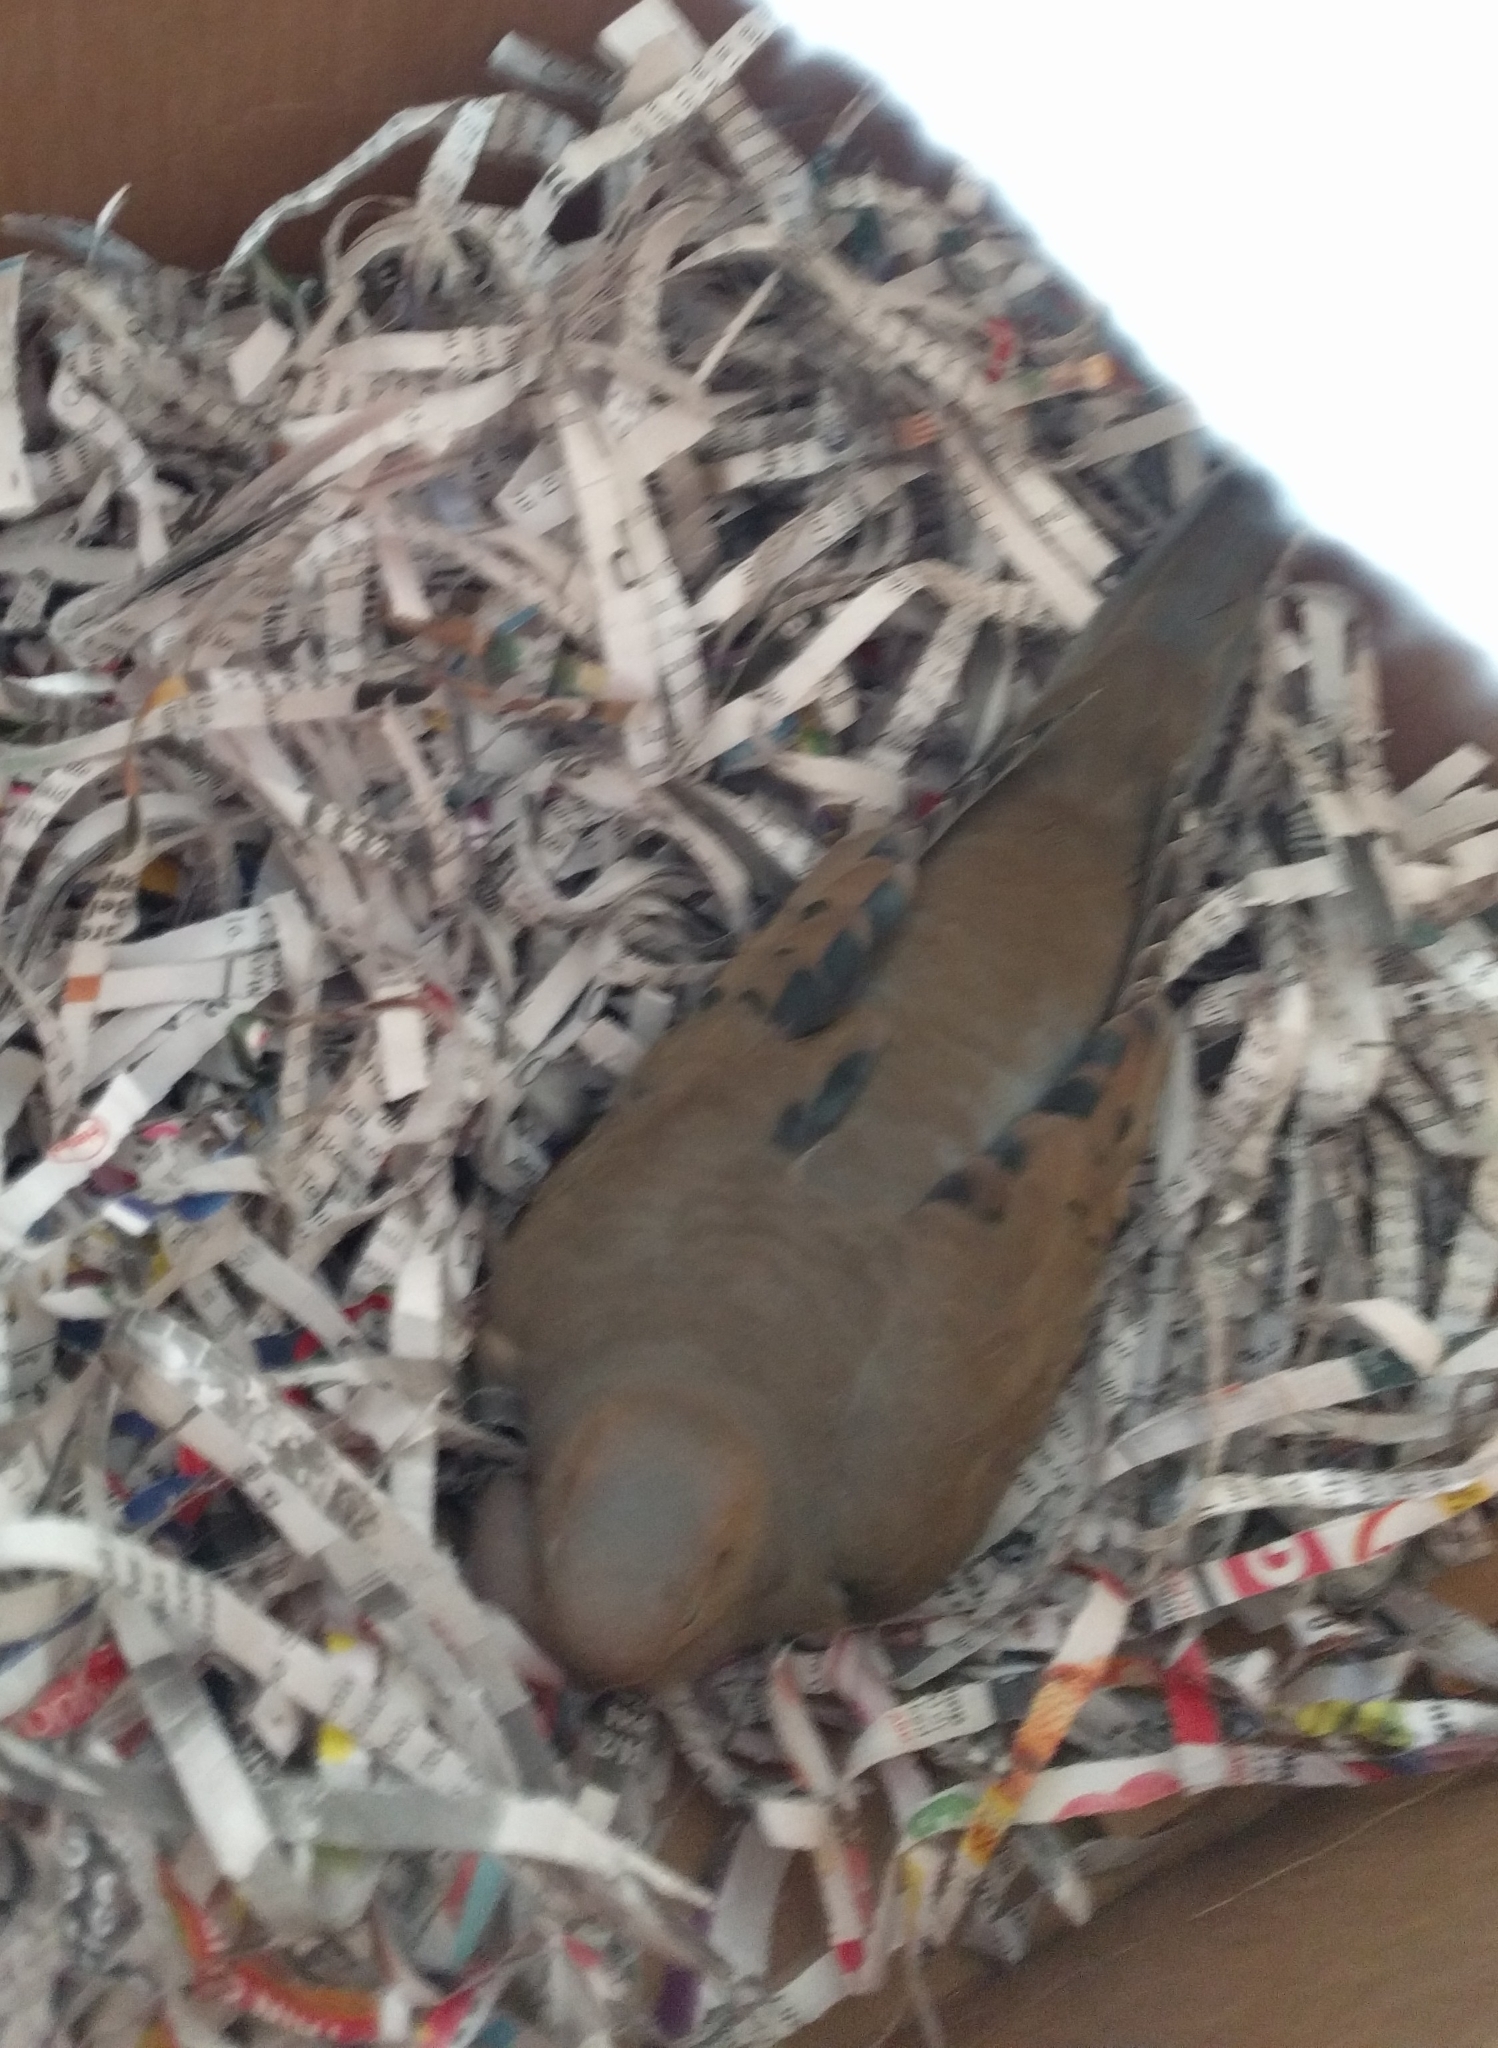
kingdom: Animalia
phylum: Chordata
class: Aves
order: Columbiformes
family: Columbidae
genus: Zenaida
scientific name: Zenaida macroura
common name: Mourning dove
